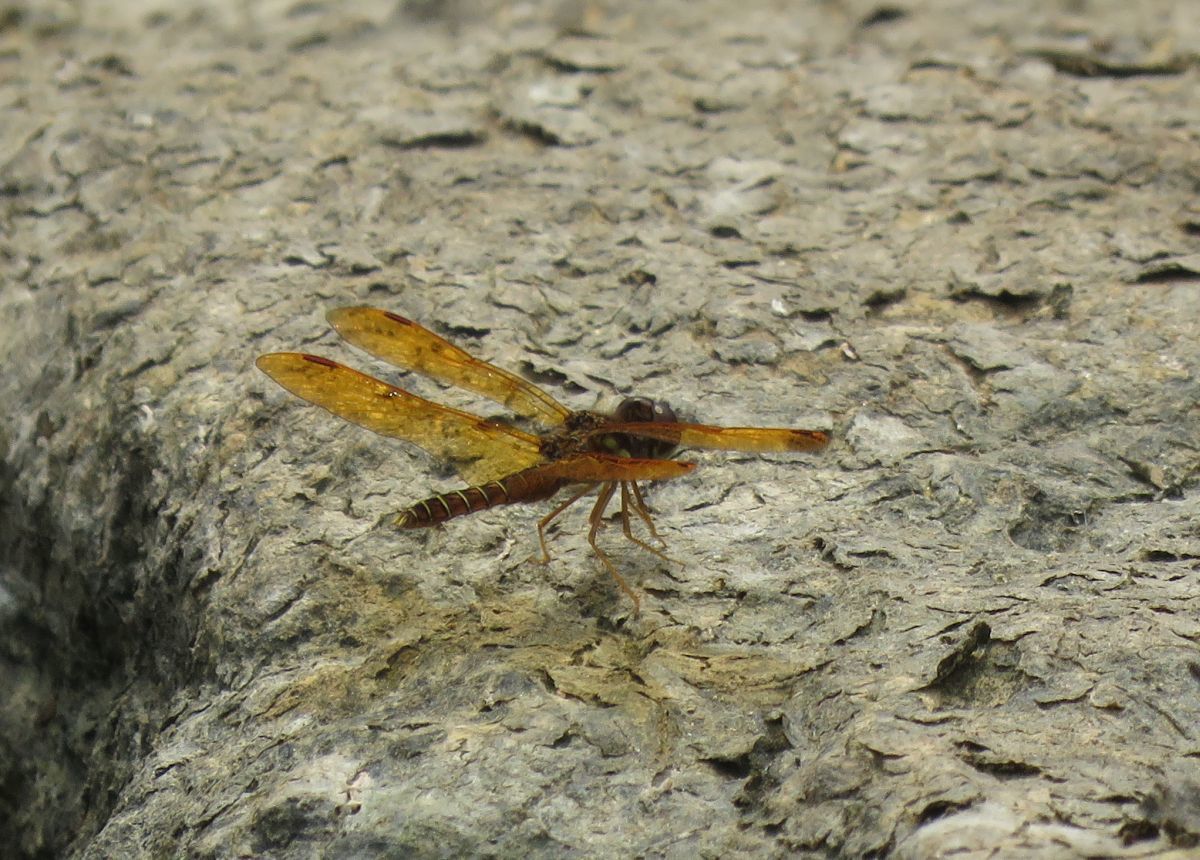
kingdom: Animalia
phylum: Arthropoda
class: Insecta
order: Odonata
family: Libellulidae
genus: Perithemis
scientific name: Perithemis tenera
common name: Eastern amberwing
